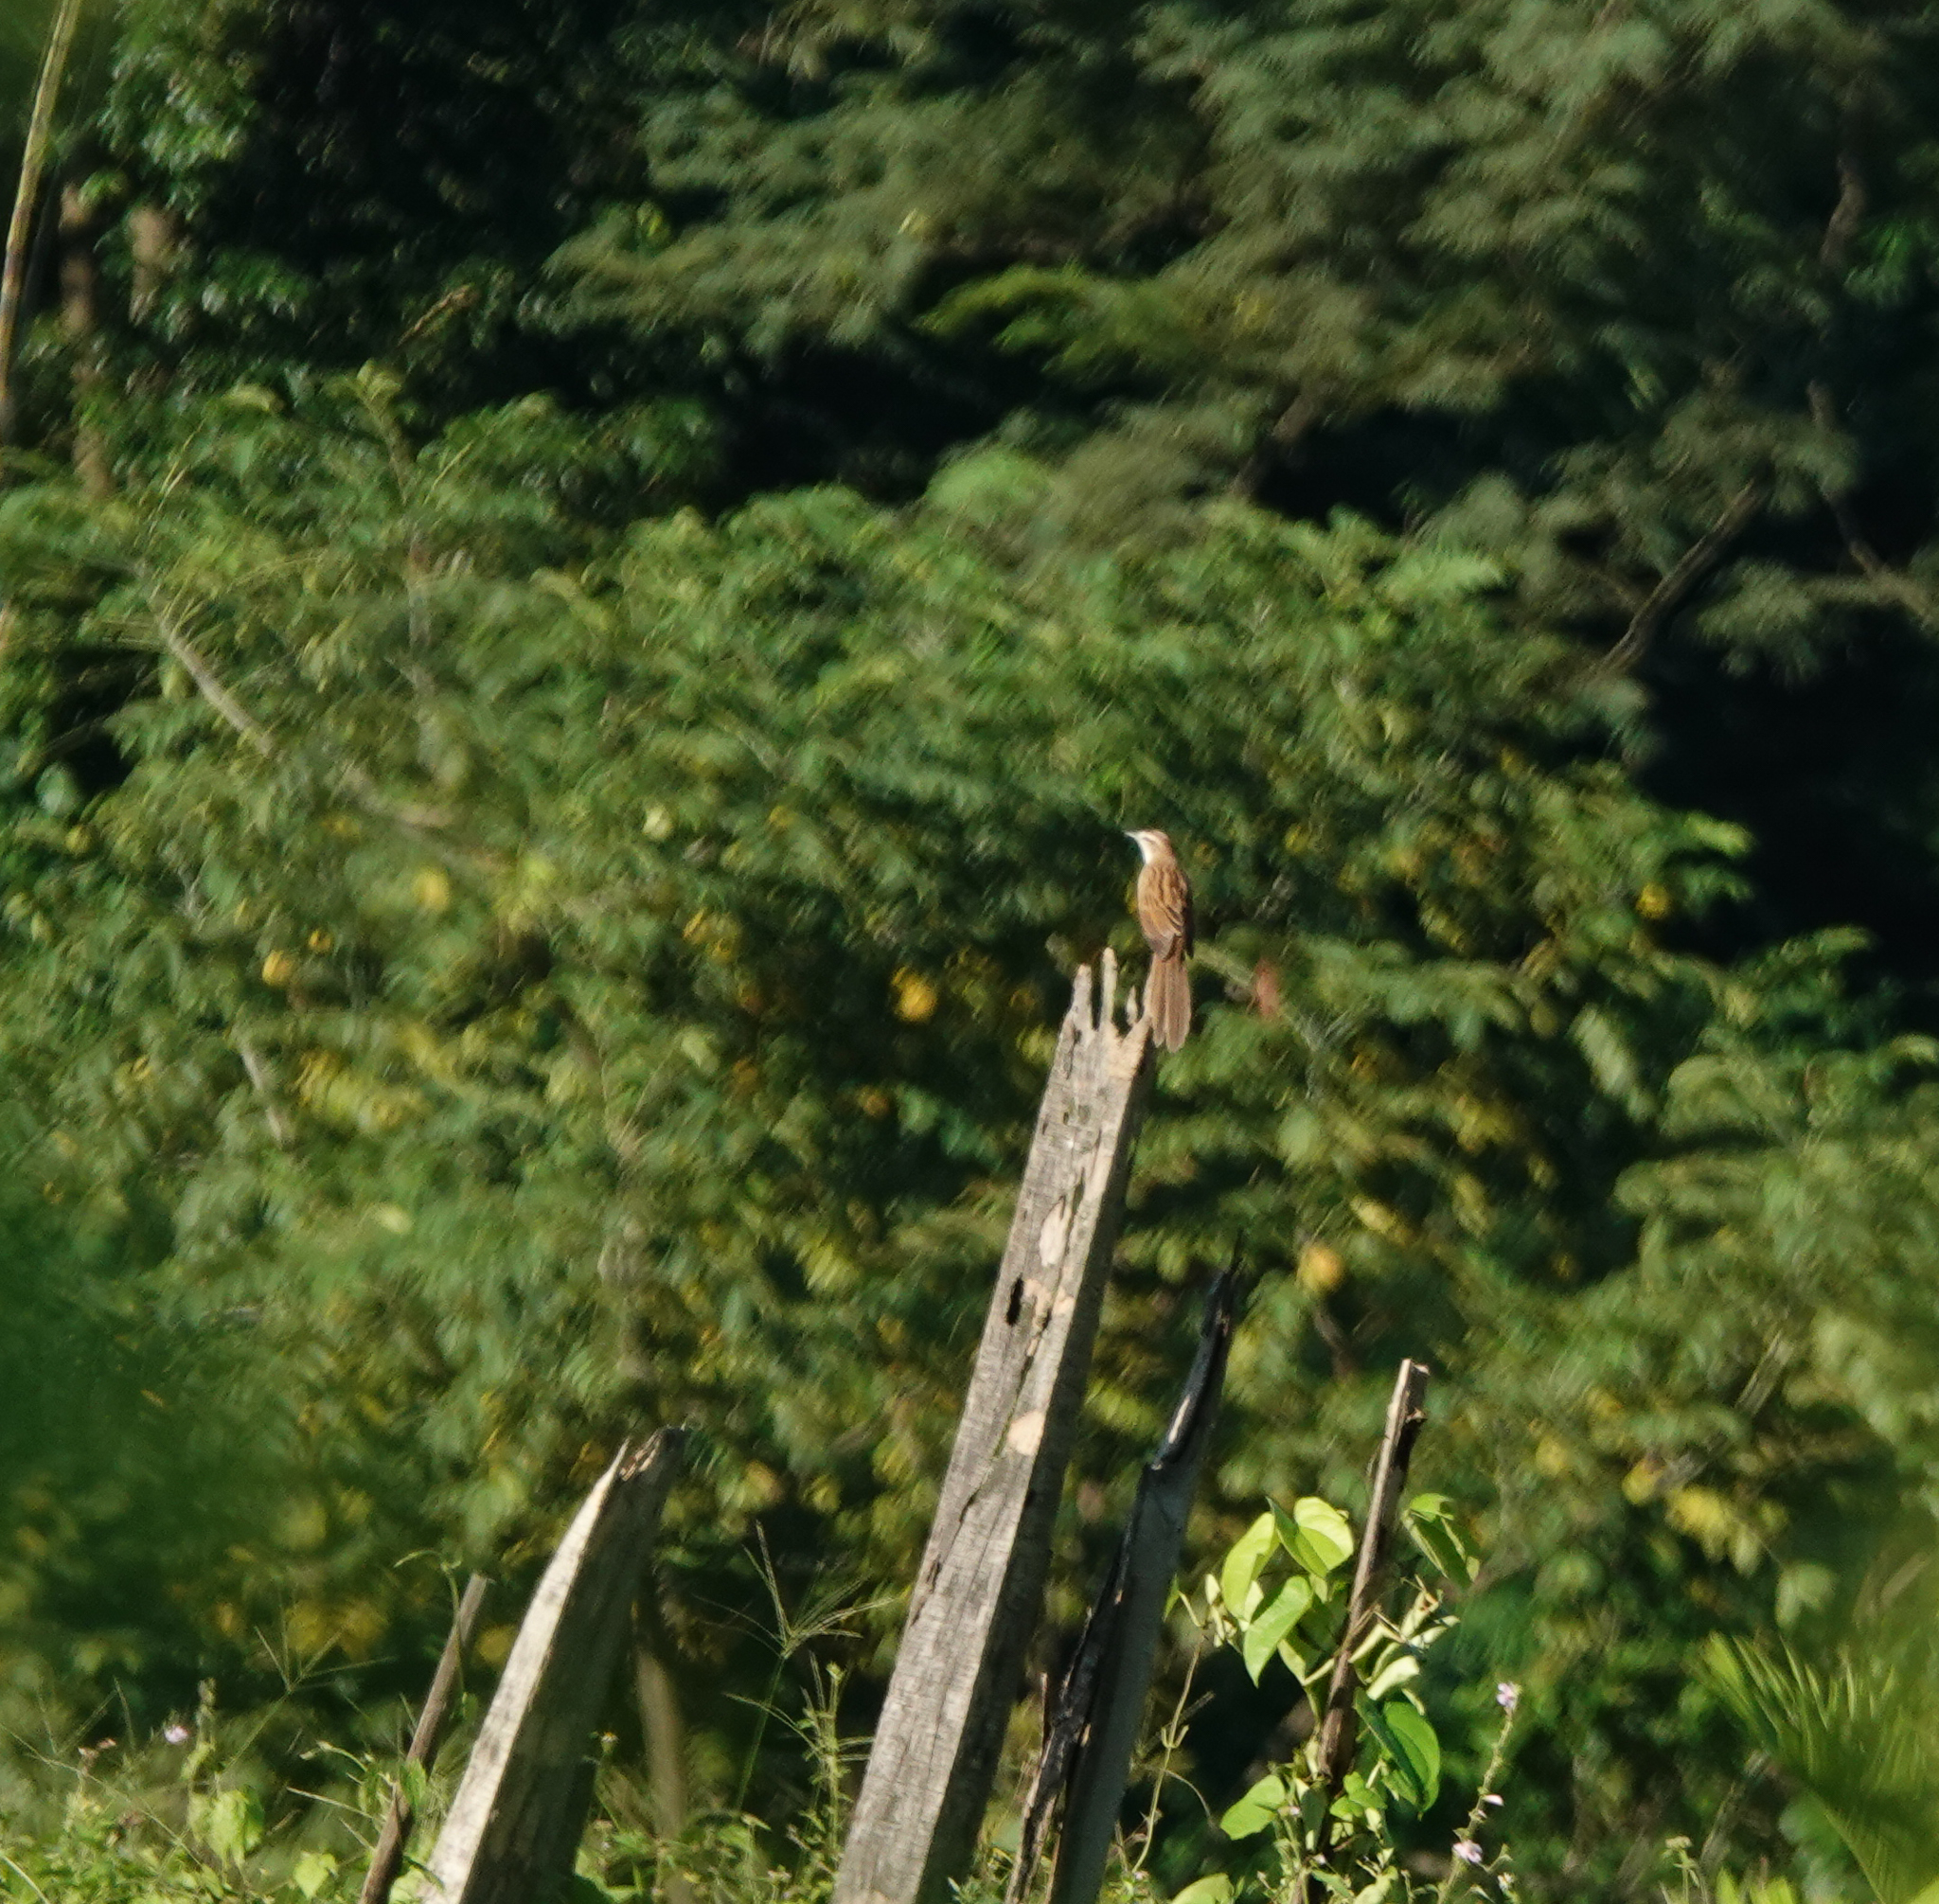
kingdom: Animalia
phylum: Chordata
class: Aves
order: Passeriformes
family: Locustellidae
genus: Megalurus
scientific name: Megalurus palustris
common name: Striated grassbird
